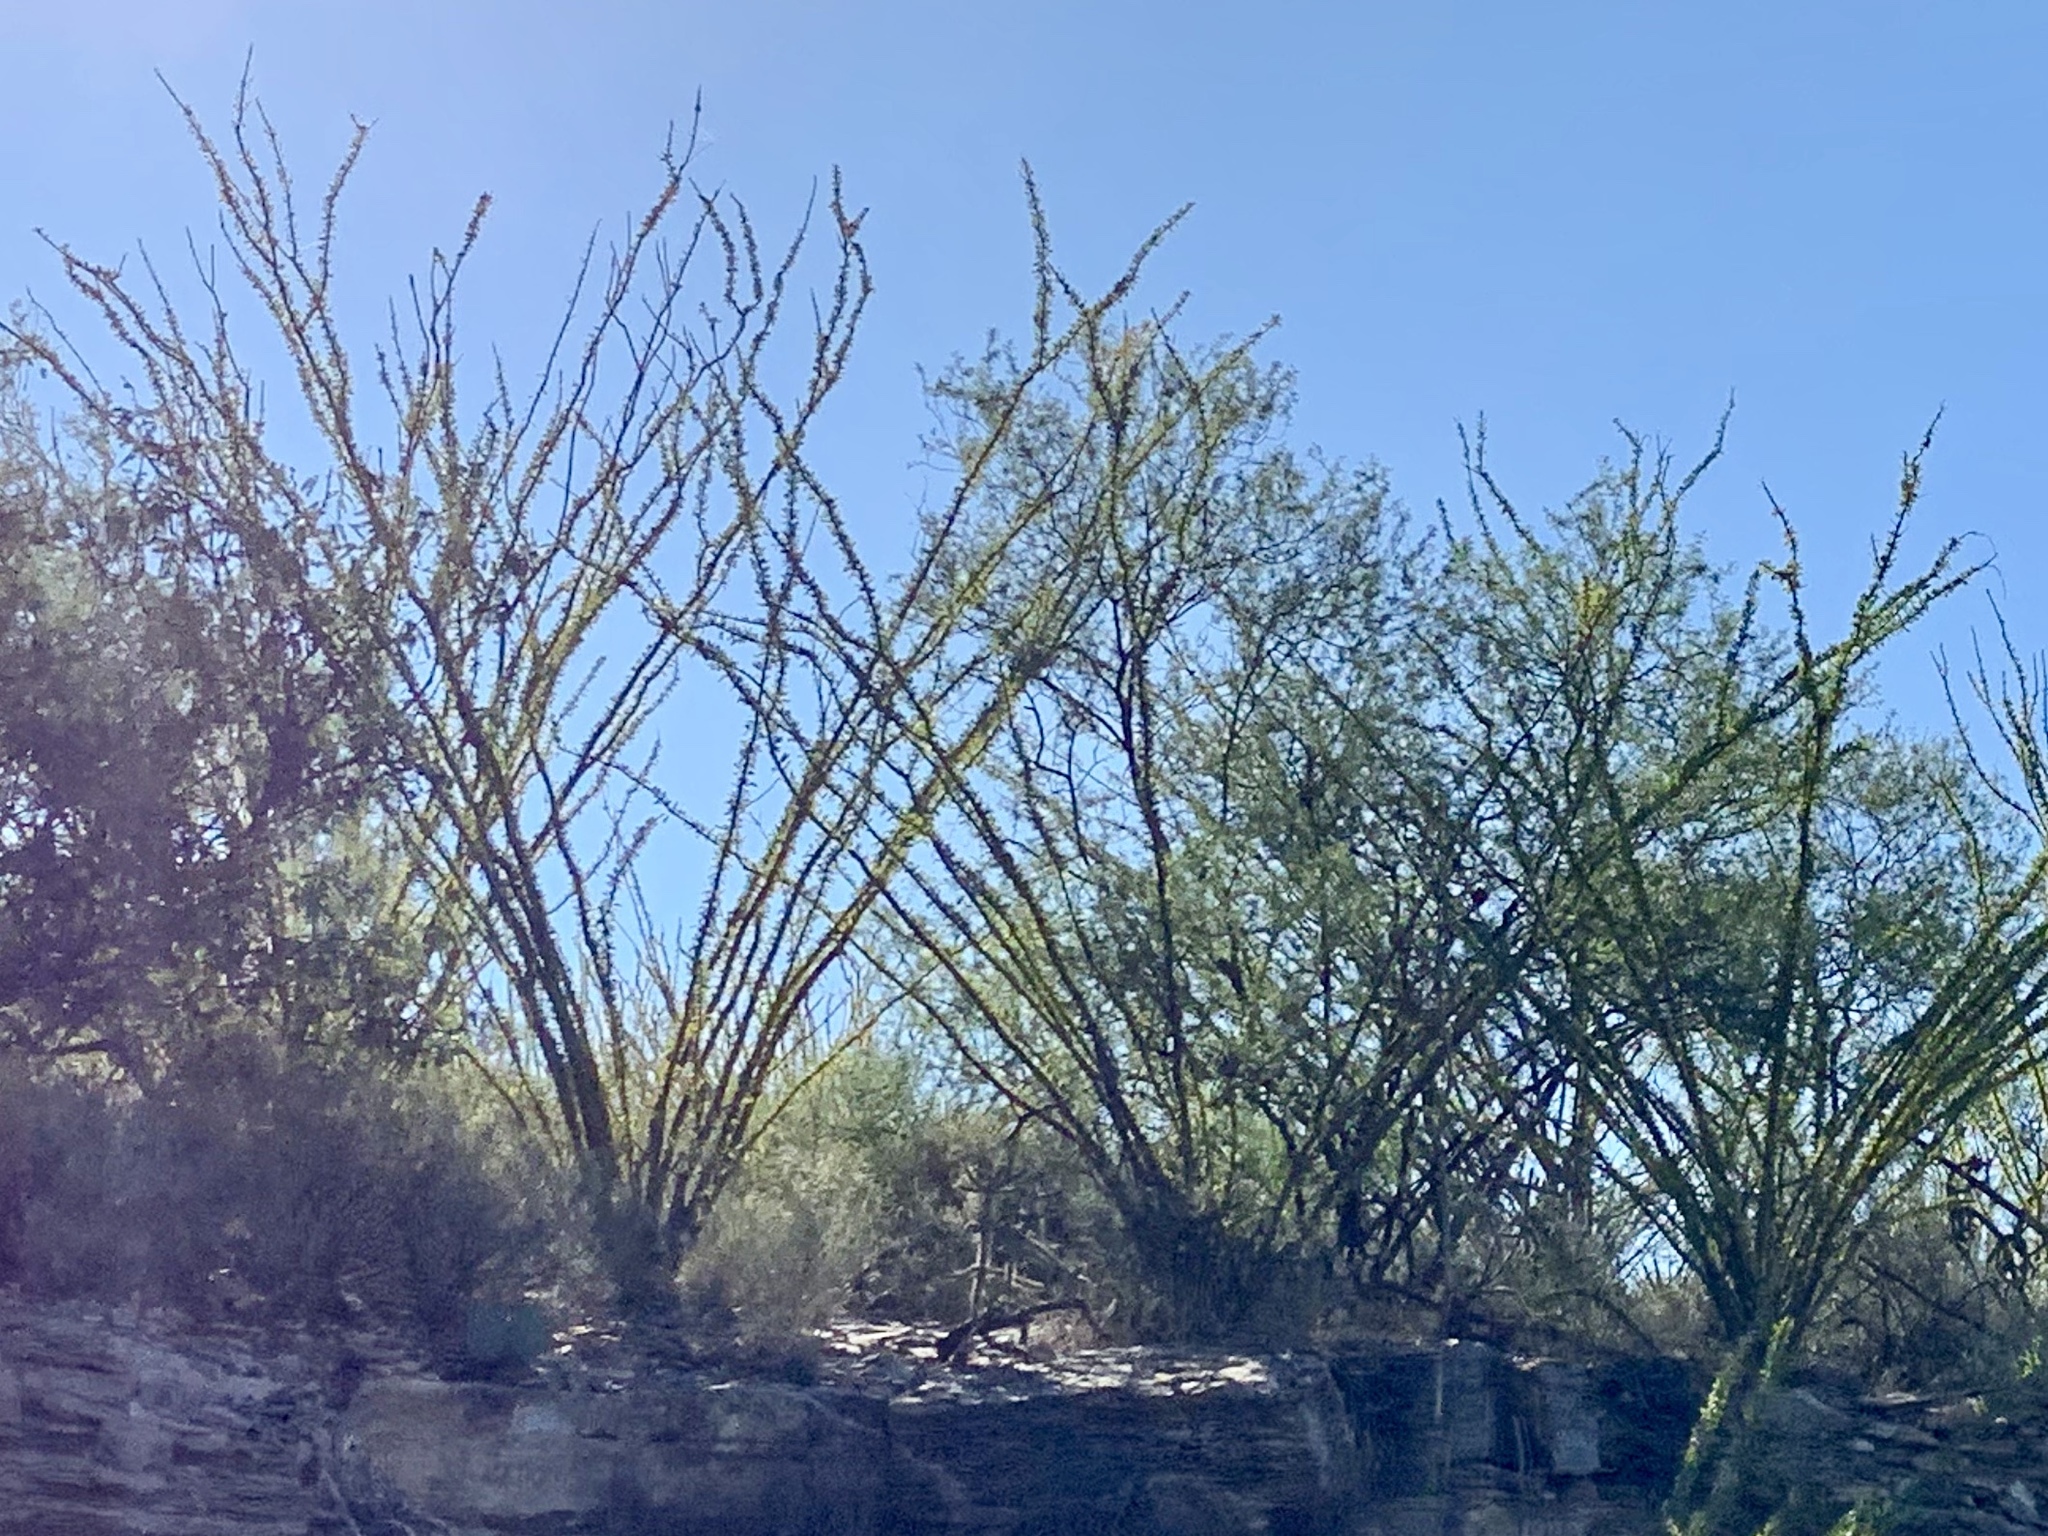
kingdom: Plantae
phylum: Tracheophyta
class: Magnoliopsida
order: Ericales
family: Fouquieriaceae
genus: Fouquieria
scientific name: Fouquieria splendens
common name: Vine-cactus
